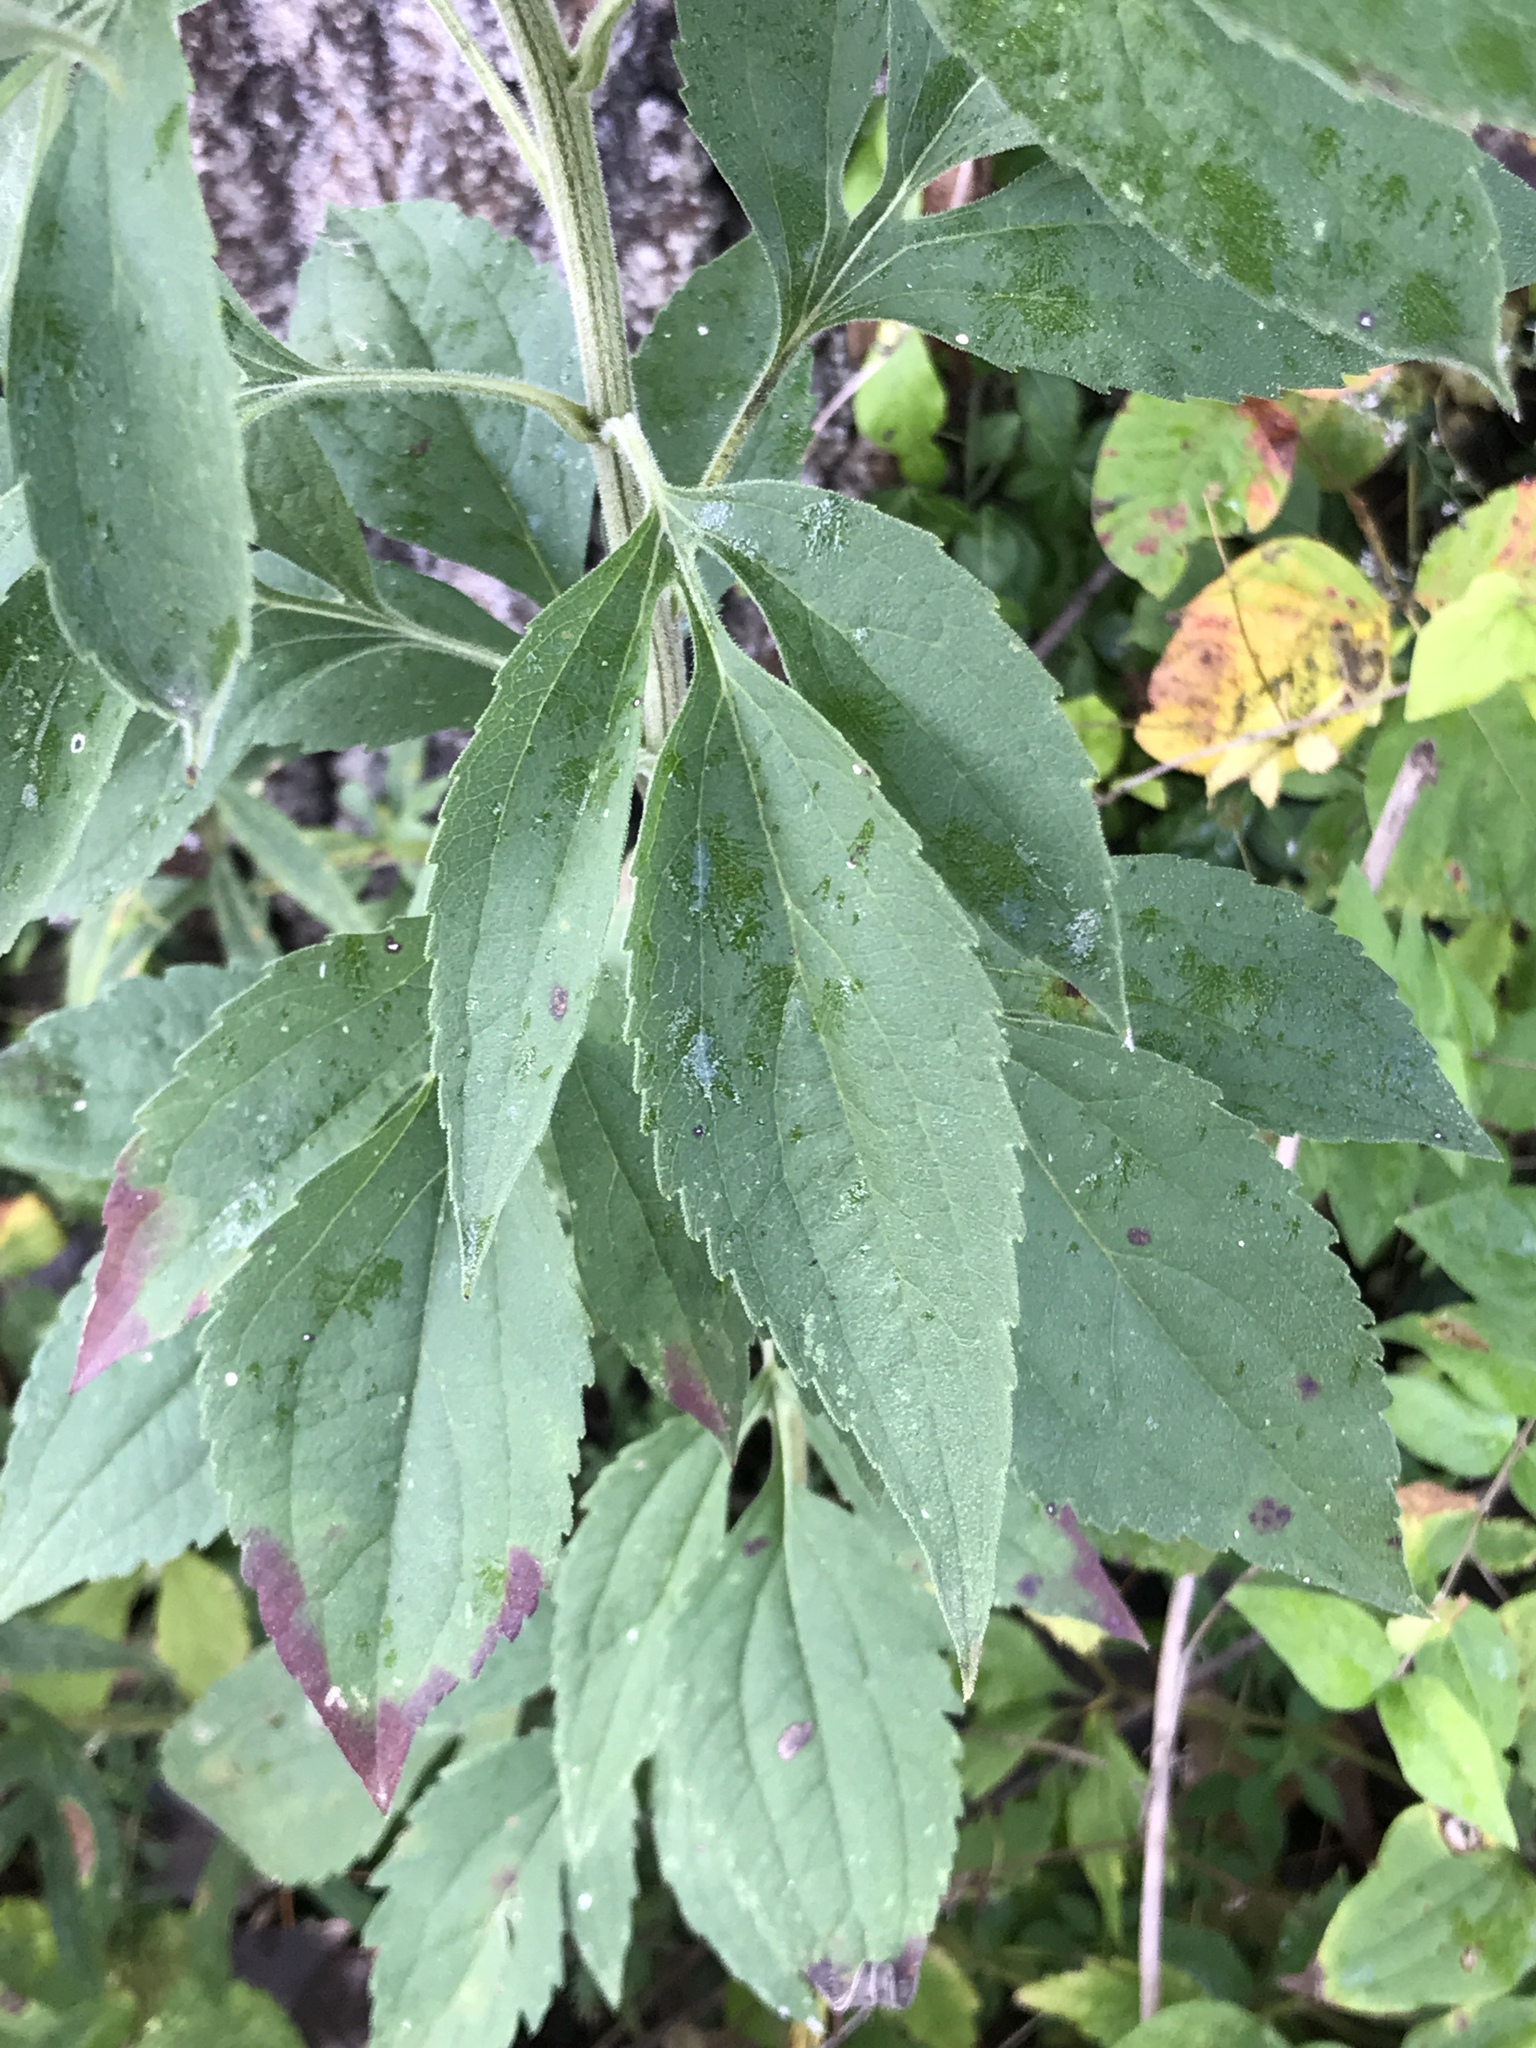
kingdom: Plantae
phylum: Tracheophyta
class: Magnoliopsida
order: Asterales
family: Asteraceae
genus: Rudbeckia
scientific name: Rudbeckia subtomentosa
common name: Sweet coneflower
